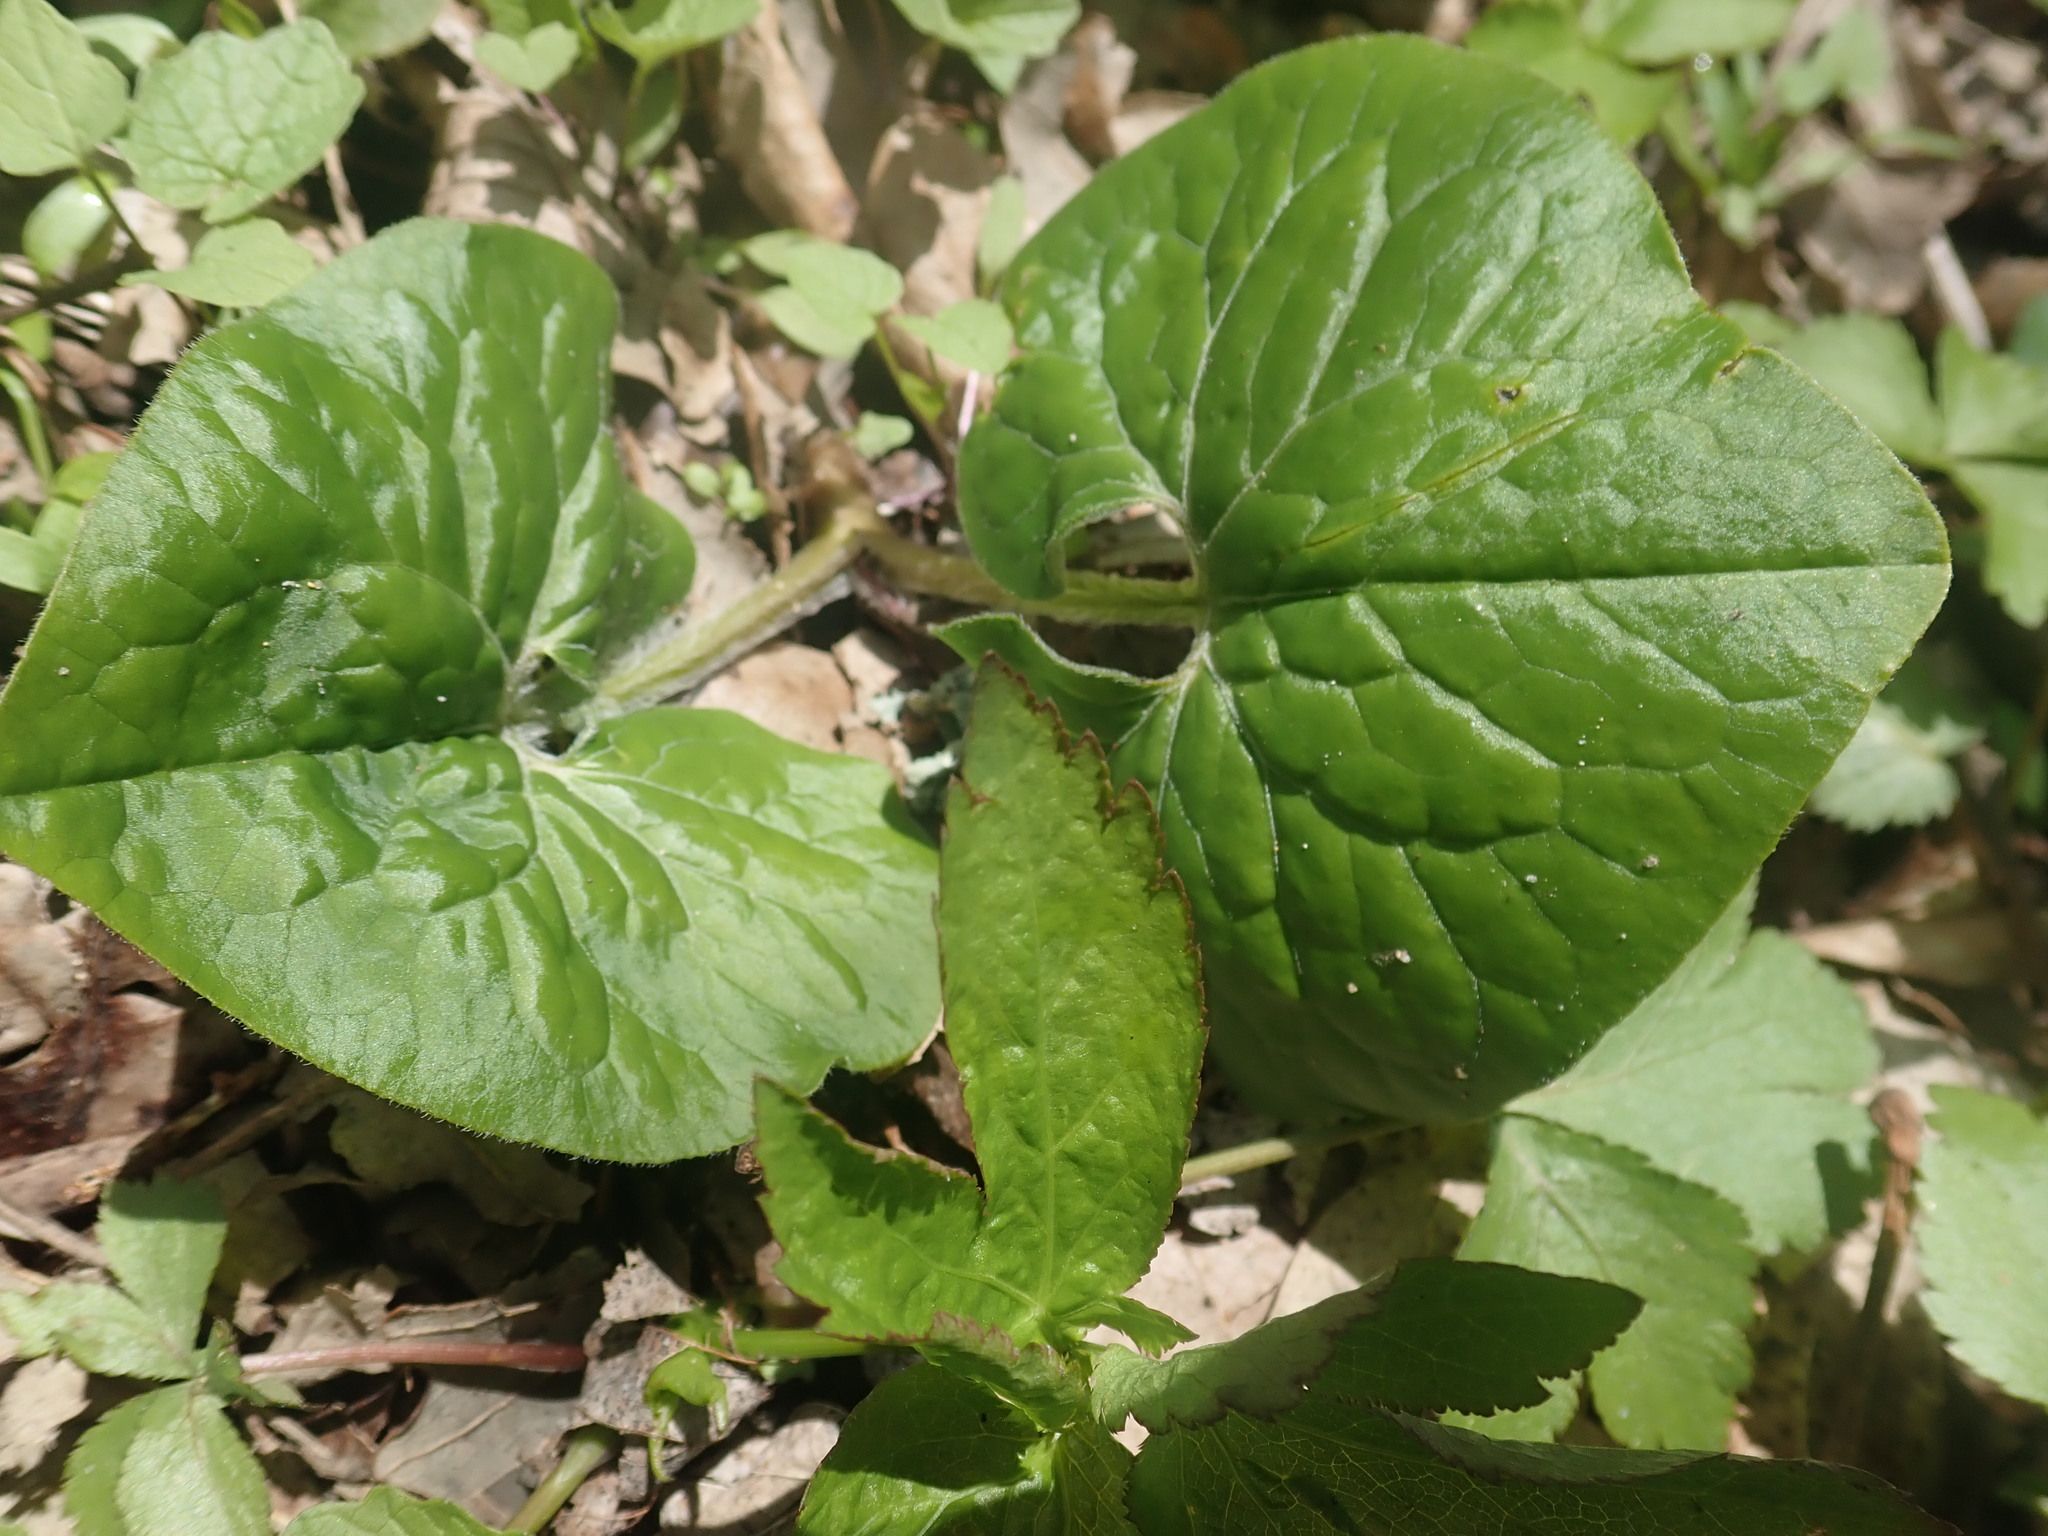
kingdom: Plantae
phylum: Tracheophyta
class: Magnoliopsida
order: Piperales
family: Aristolochiaceae
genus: Asarum
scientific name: Asarum canadense
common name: Wild ginger
